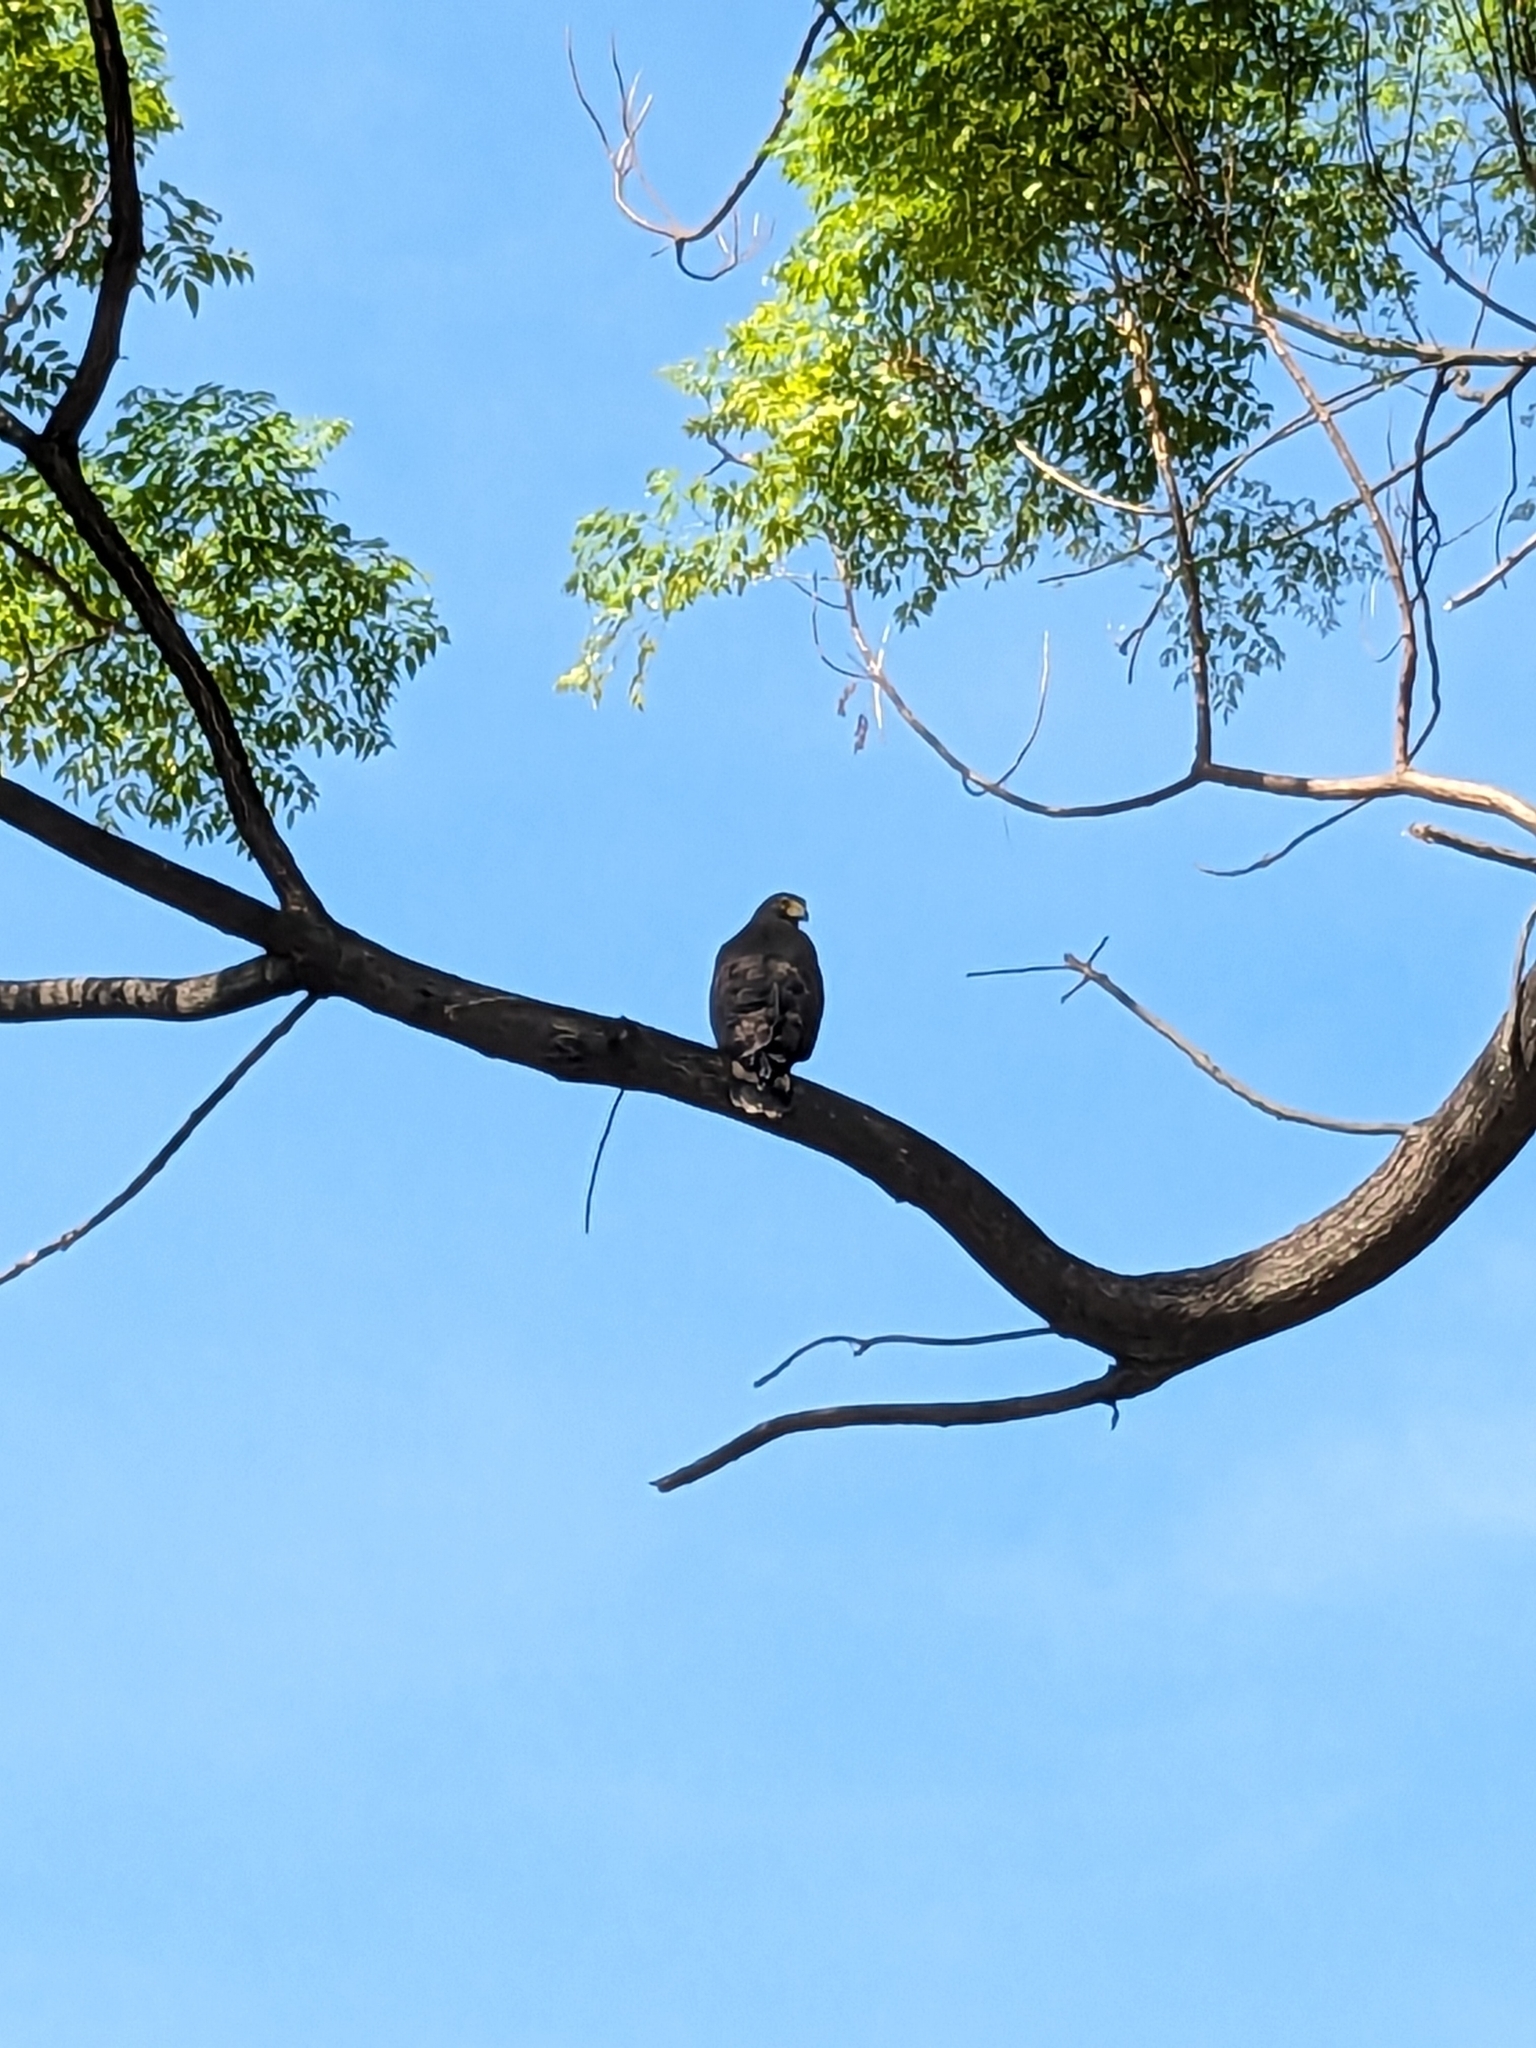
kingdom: Animalia
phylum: Chordata
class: Aves
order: Accipitriformes
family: Accipitridae
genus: Spilornis
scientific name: Spilornis cheela
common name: Crested serpent eagle
